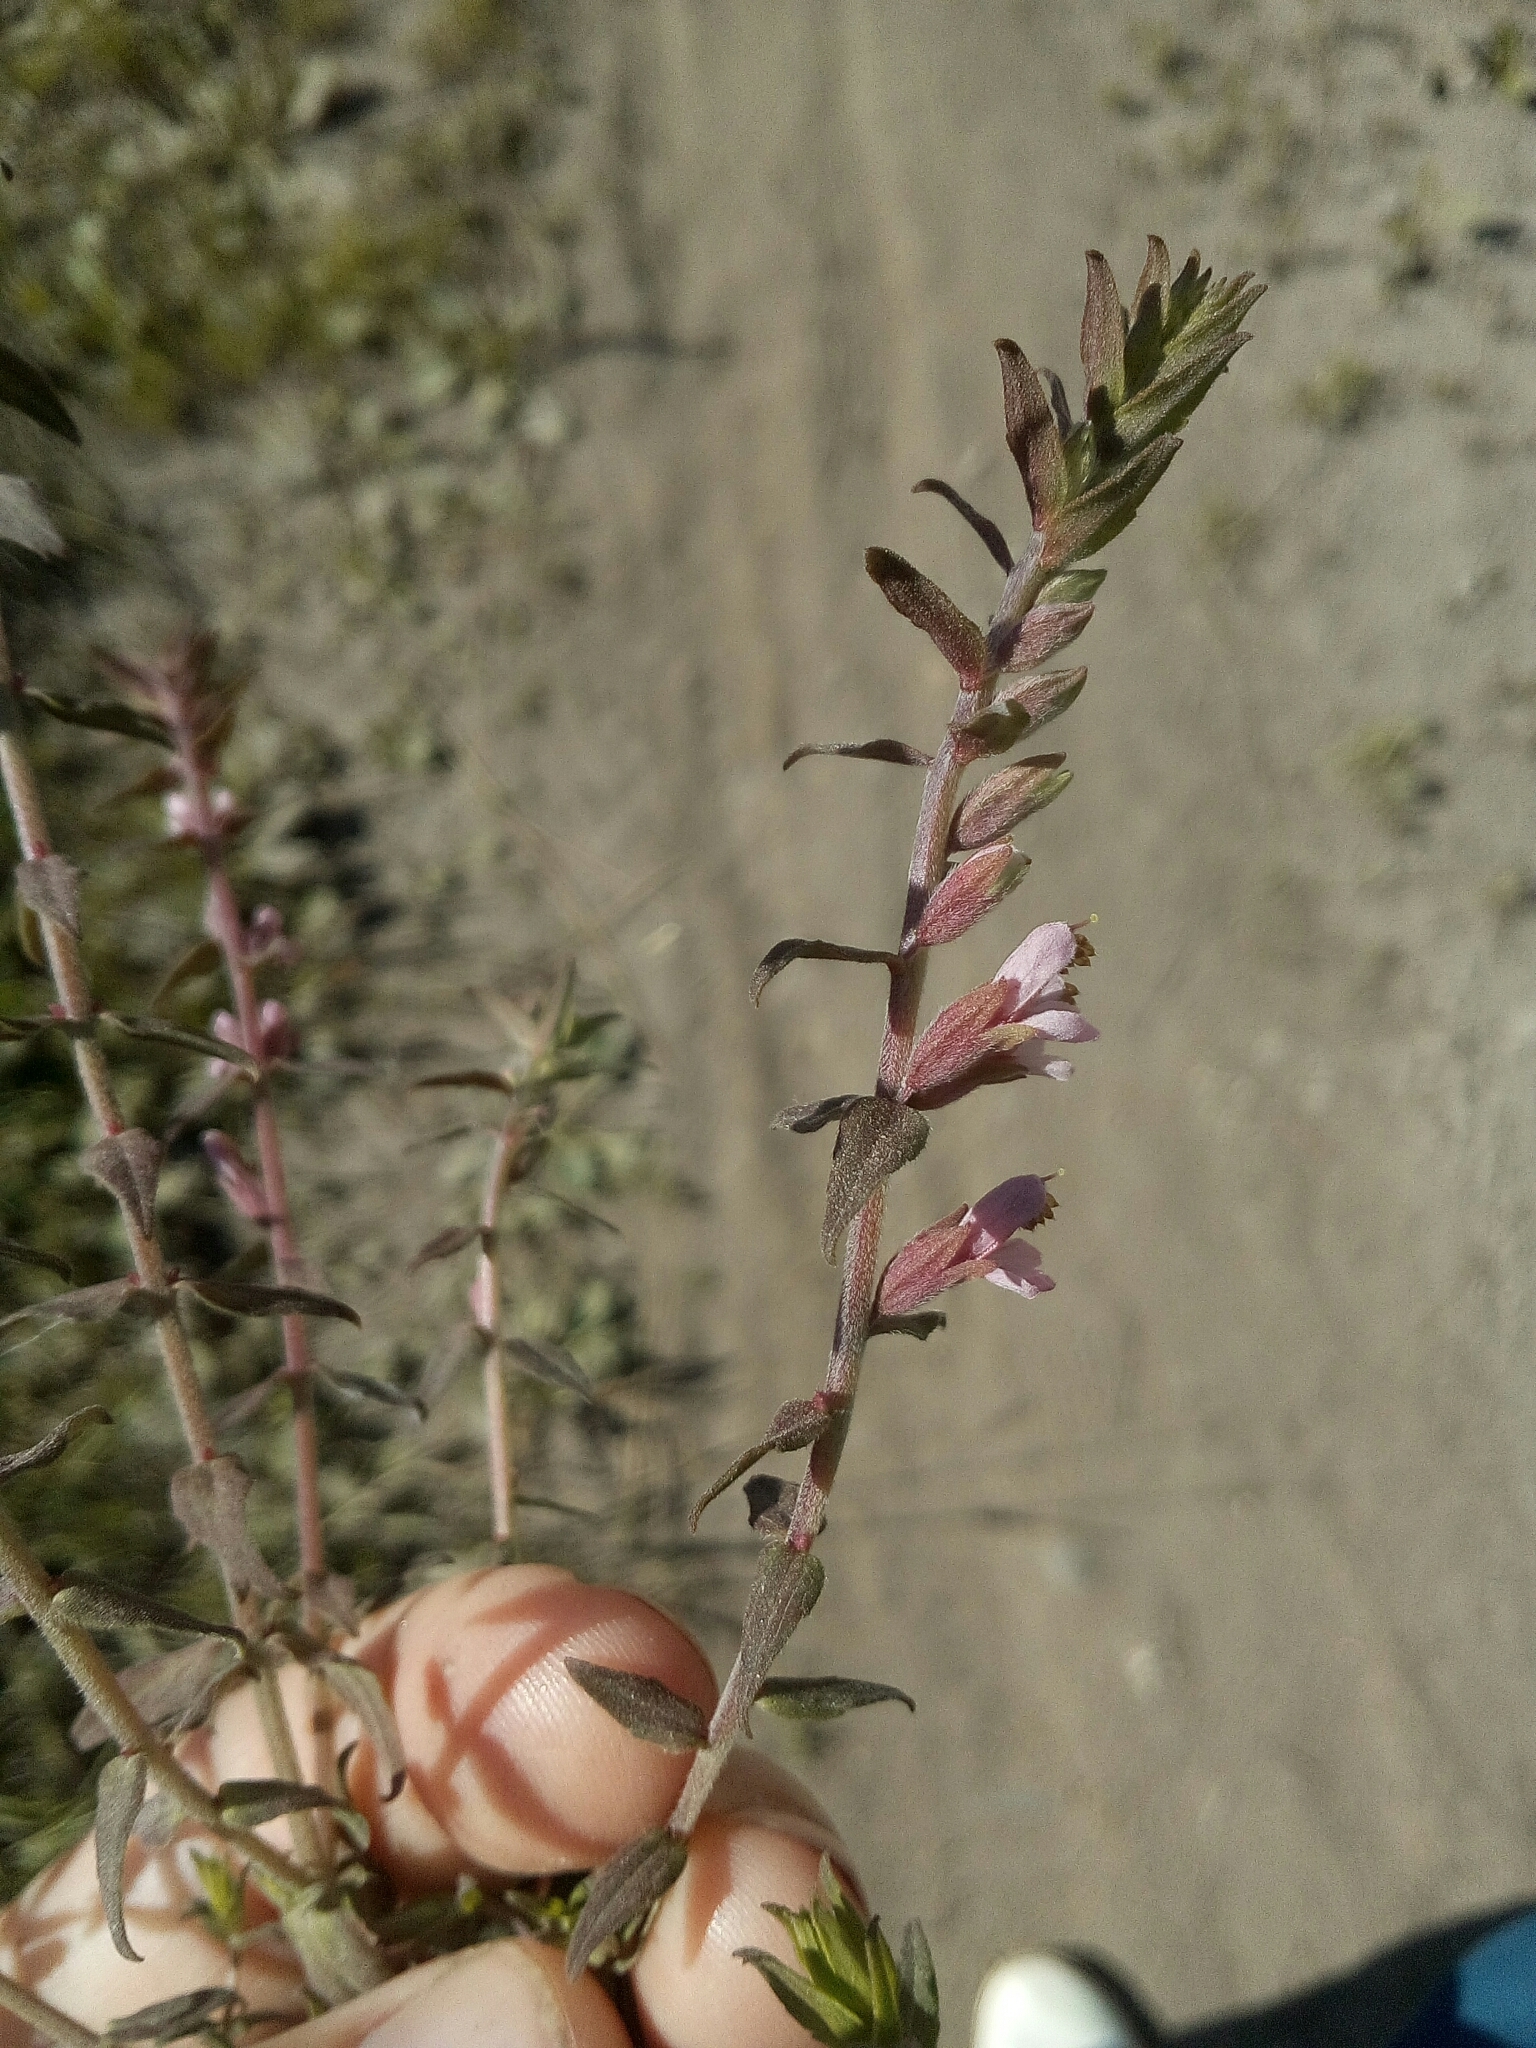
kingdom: Plantae
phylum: Tracheophyta
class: Magnoliopsida
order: Lamiales
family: Orobanchaceae
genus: Odontites
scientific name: Odontites vulgaris
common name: Broomrape
